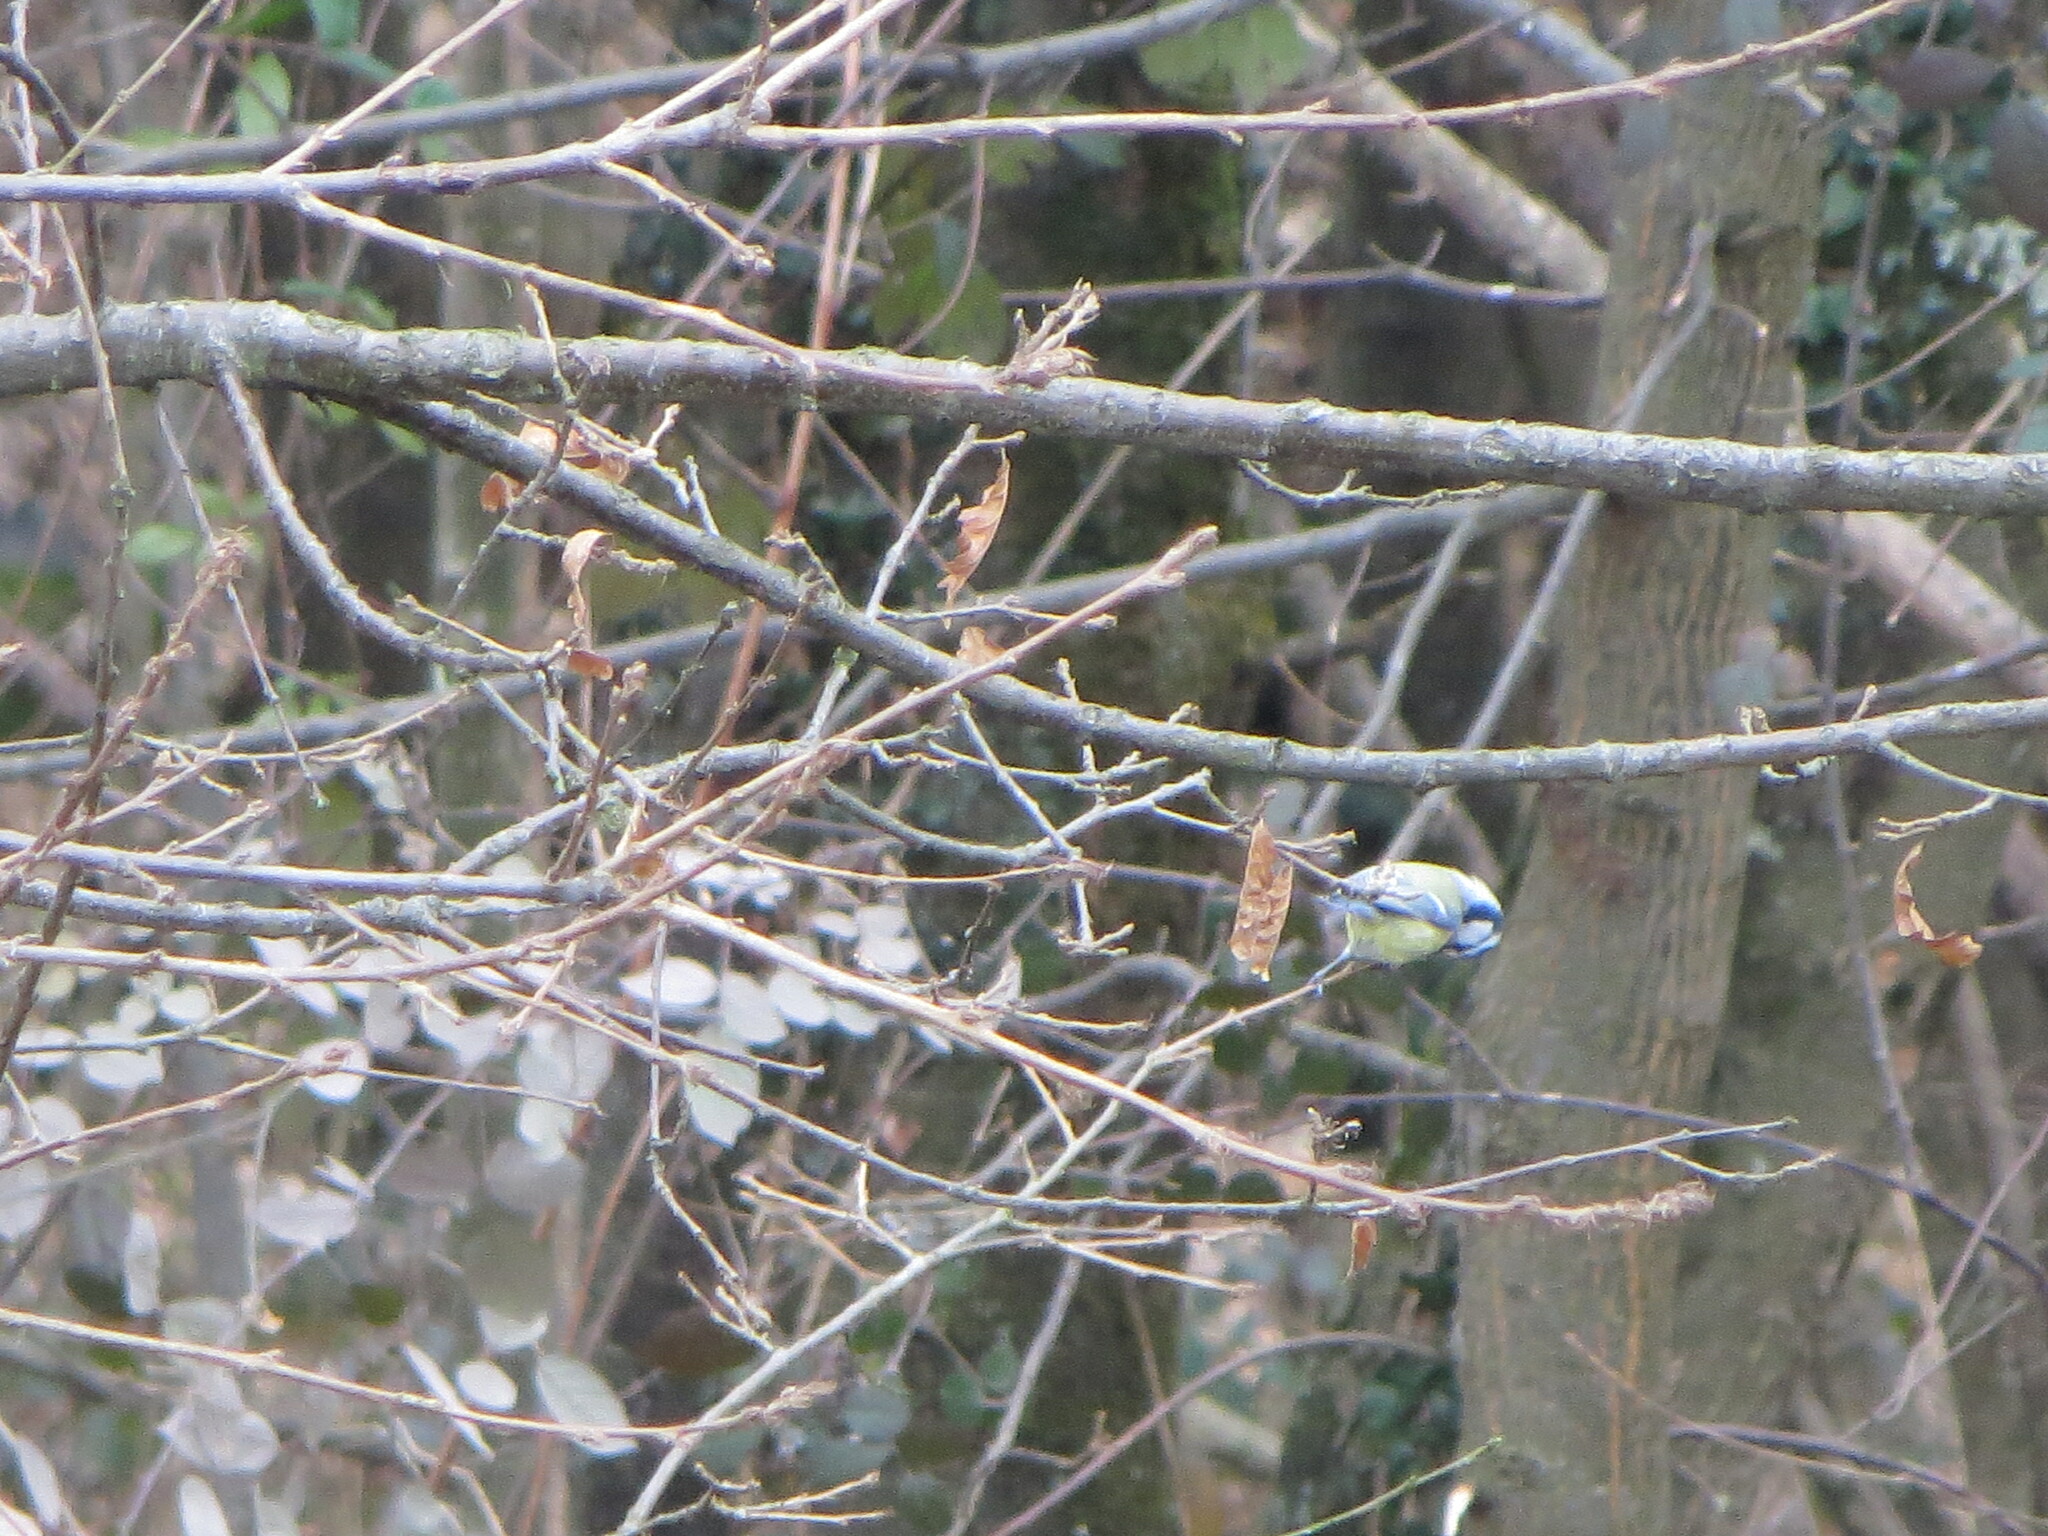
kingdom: Animalia
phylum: Chordata
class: Aves
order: Passeriformes
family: Paridae
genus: Cyanistes
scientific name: Cyanistes caeruleus
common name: Eurasian blue tit
